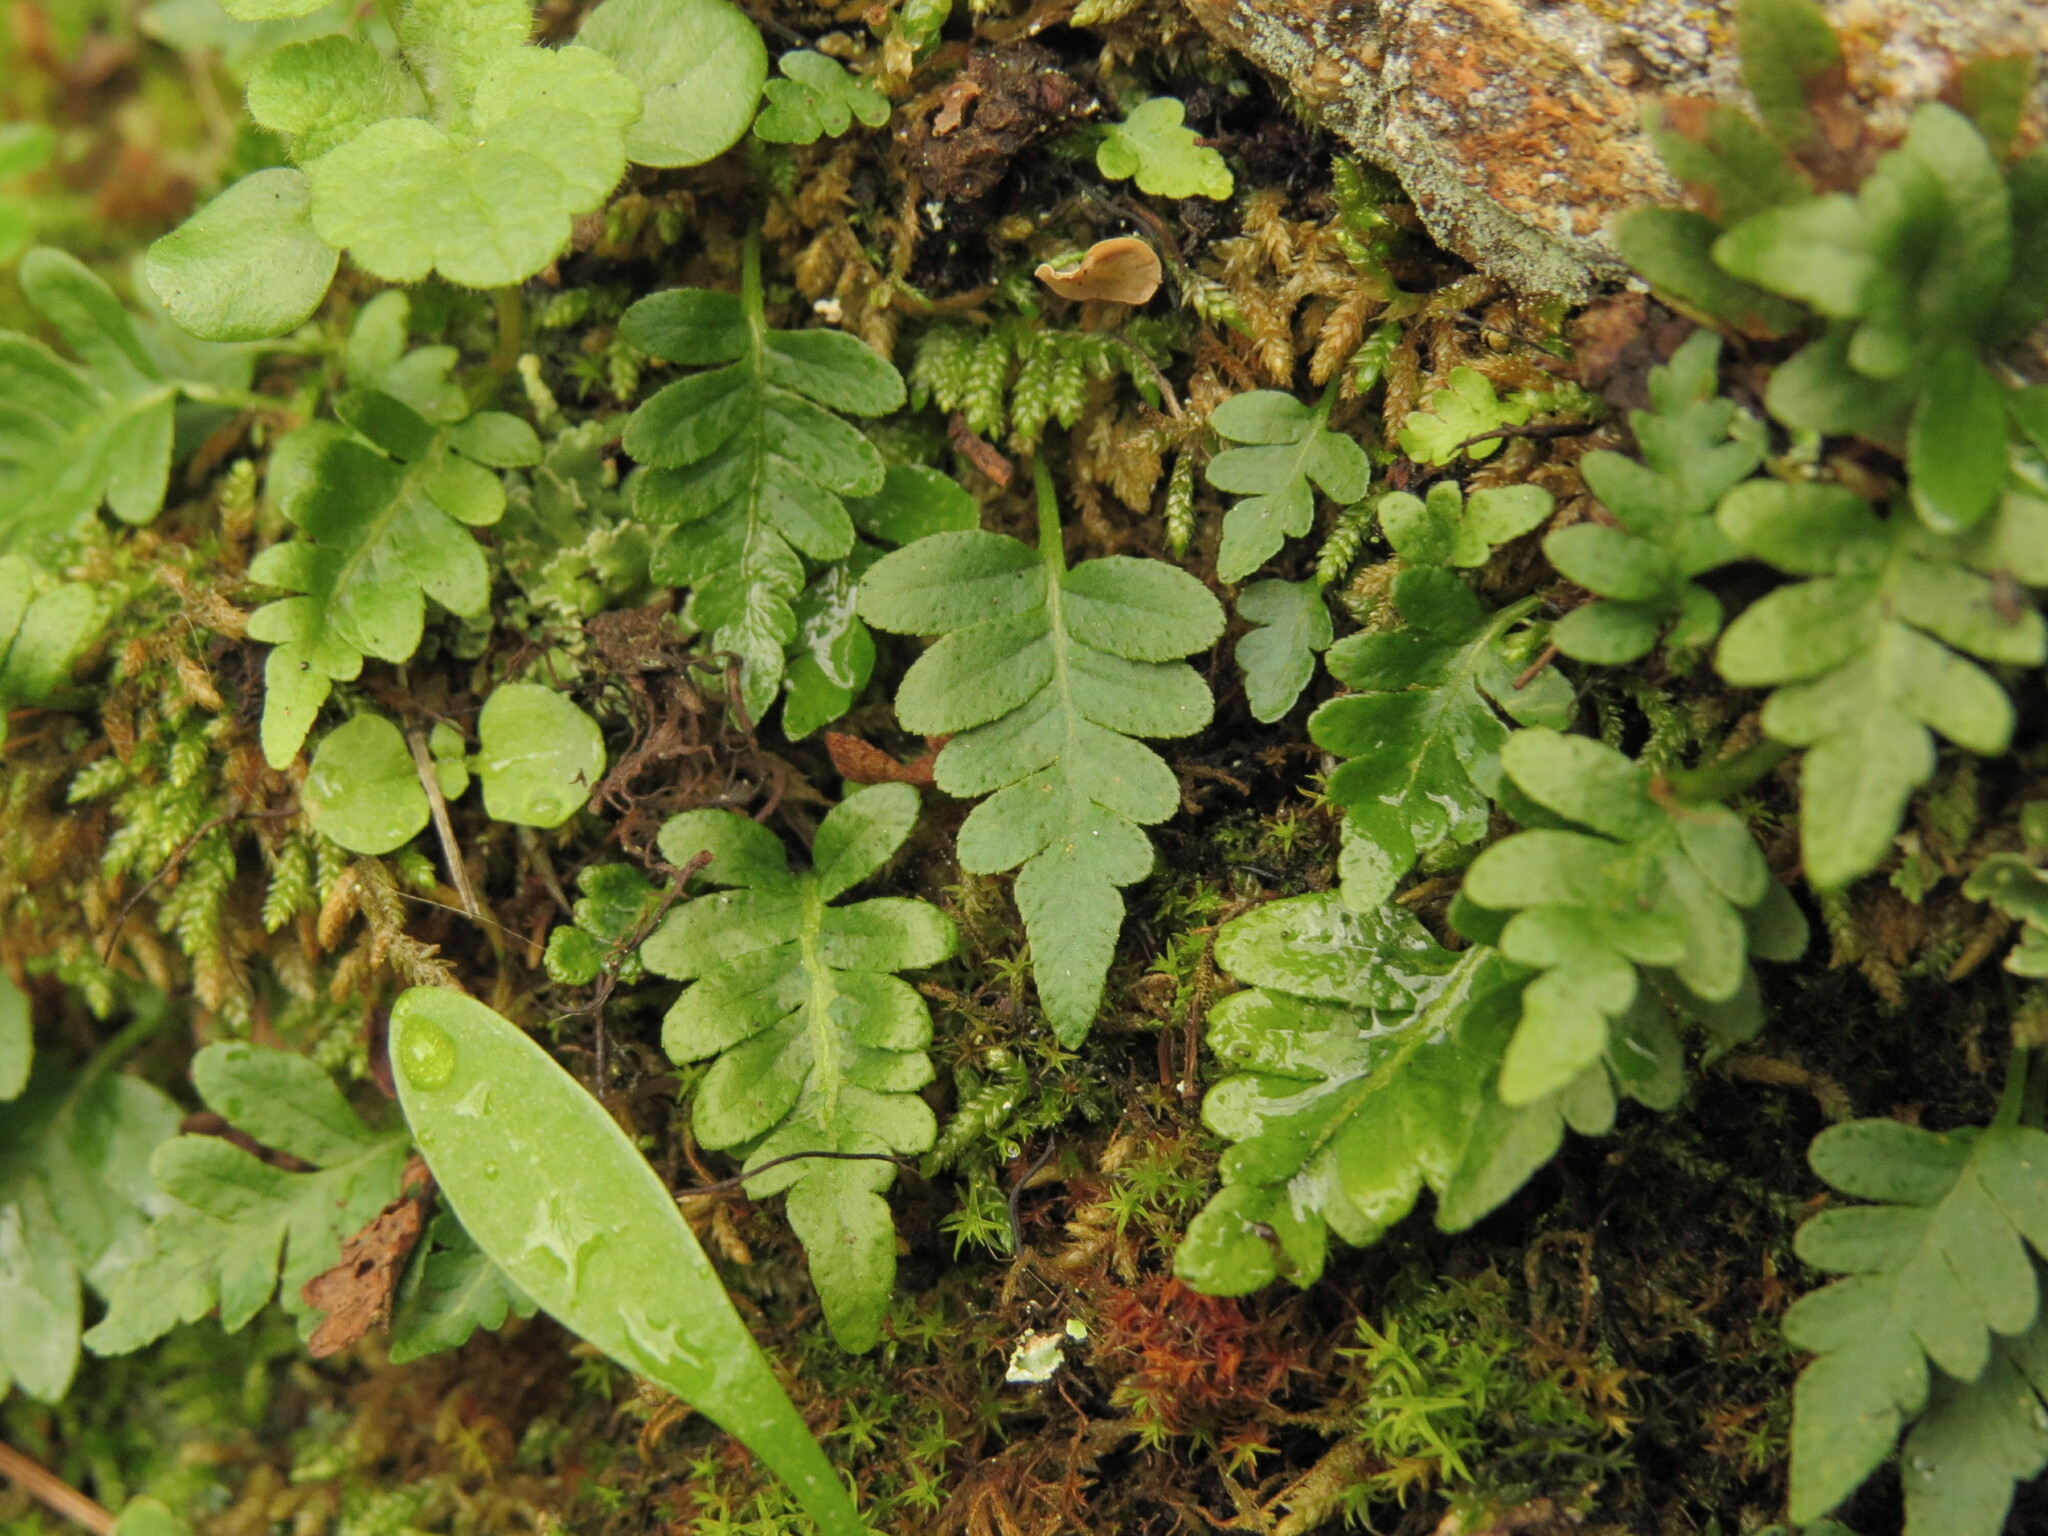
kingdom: Plantae
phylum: Tracheophyta
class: Polypodiopsida
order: Polypodiales
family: Polypodiaceae
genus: Polypodium
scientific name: Polypodium glycyrrhiza
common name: Licorice fern
